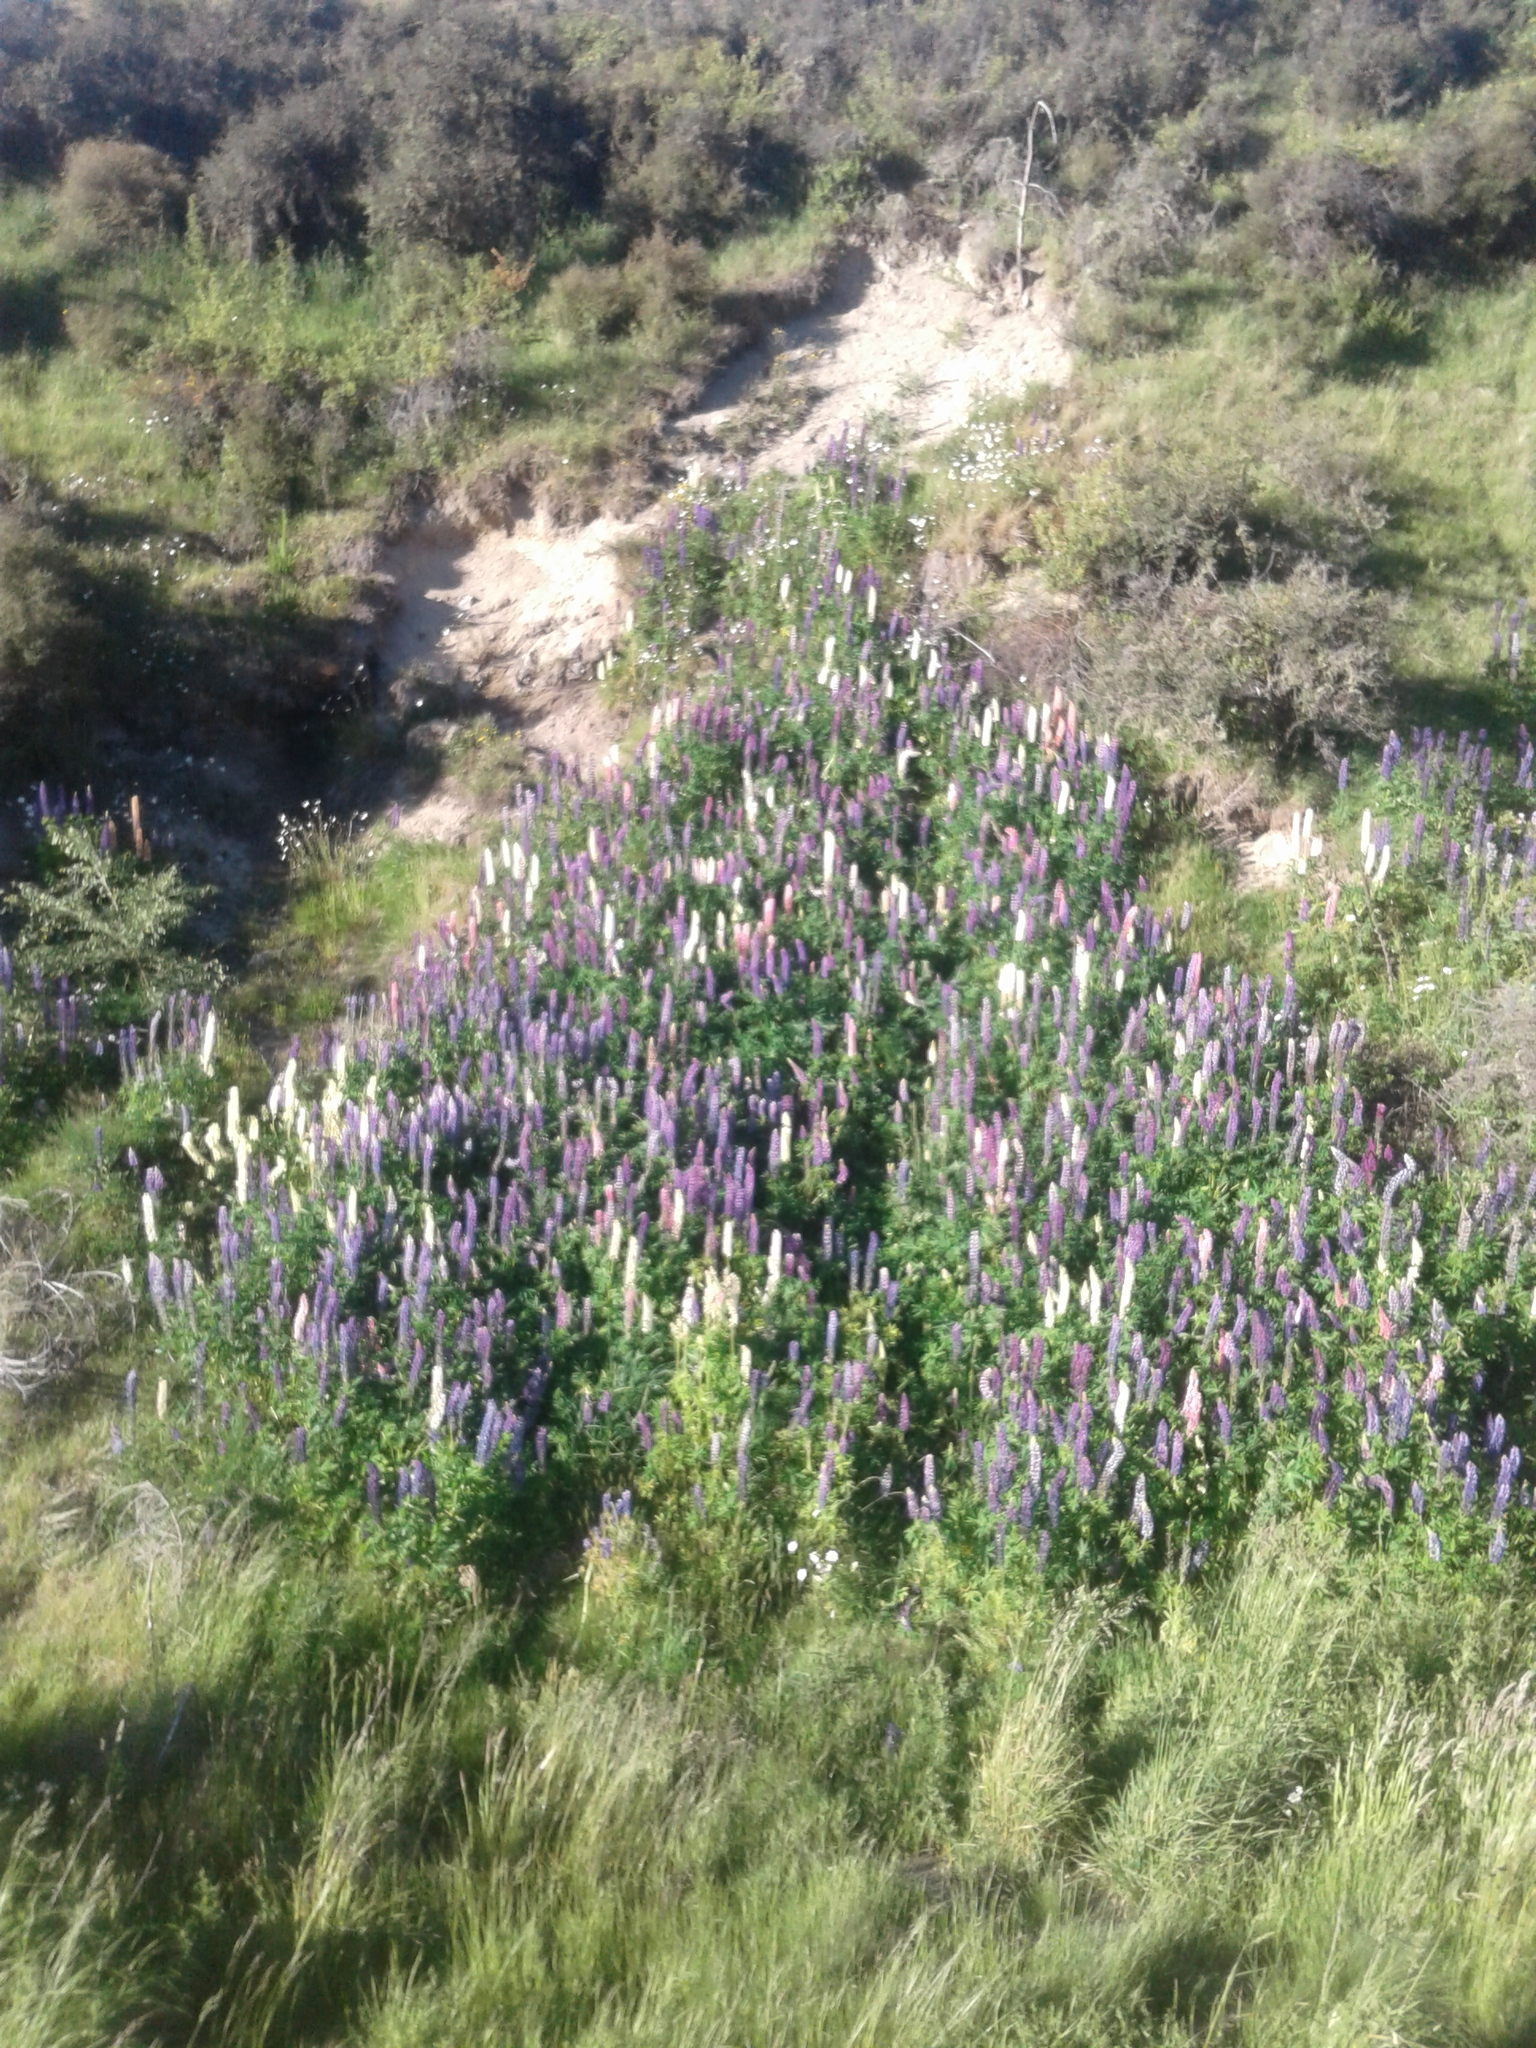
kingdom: Plantae
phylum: Tracheophyta
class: Magnoliopsida
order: Fabales
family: Fabaceae
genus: Lupinus
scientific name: Lupinus polyphyllus
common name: Garden lupin
